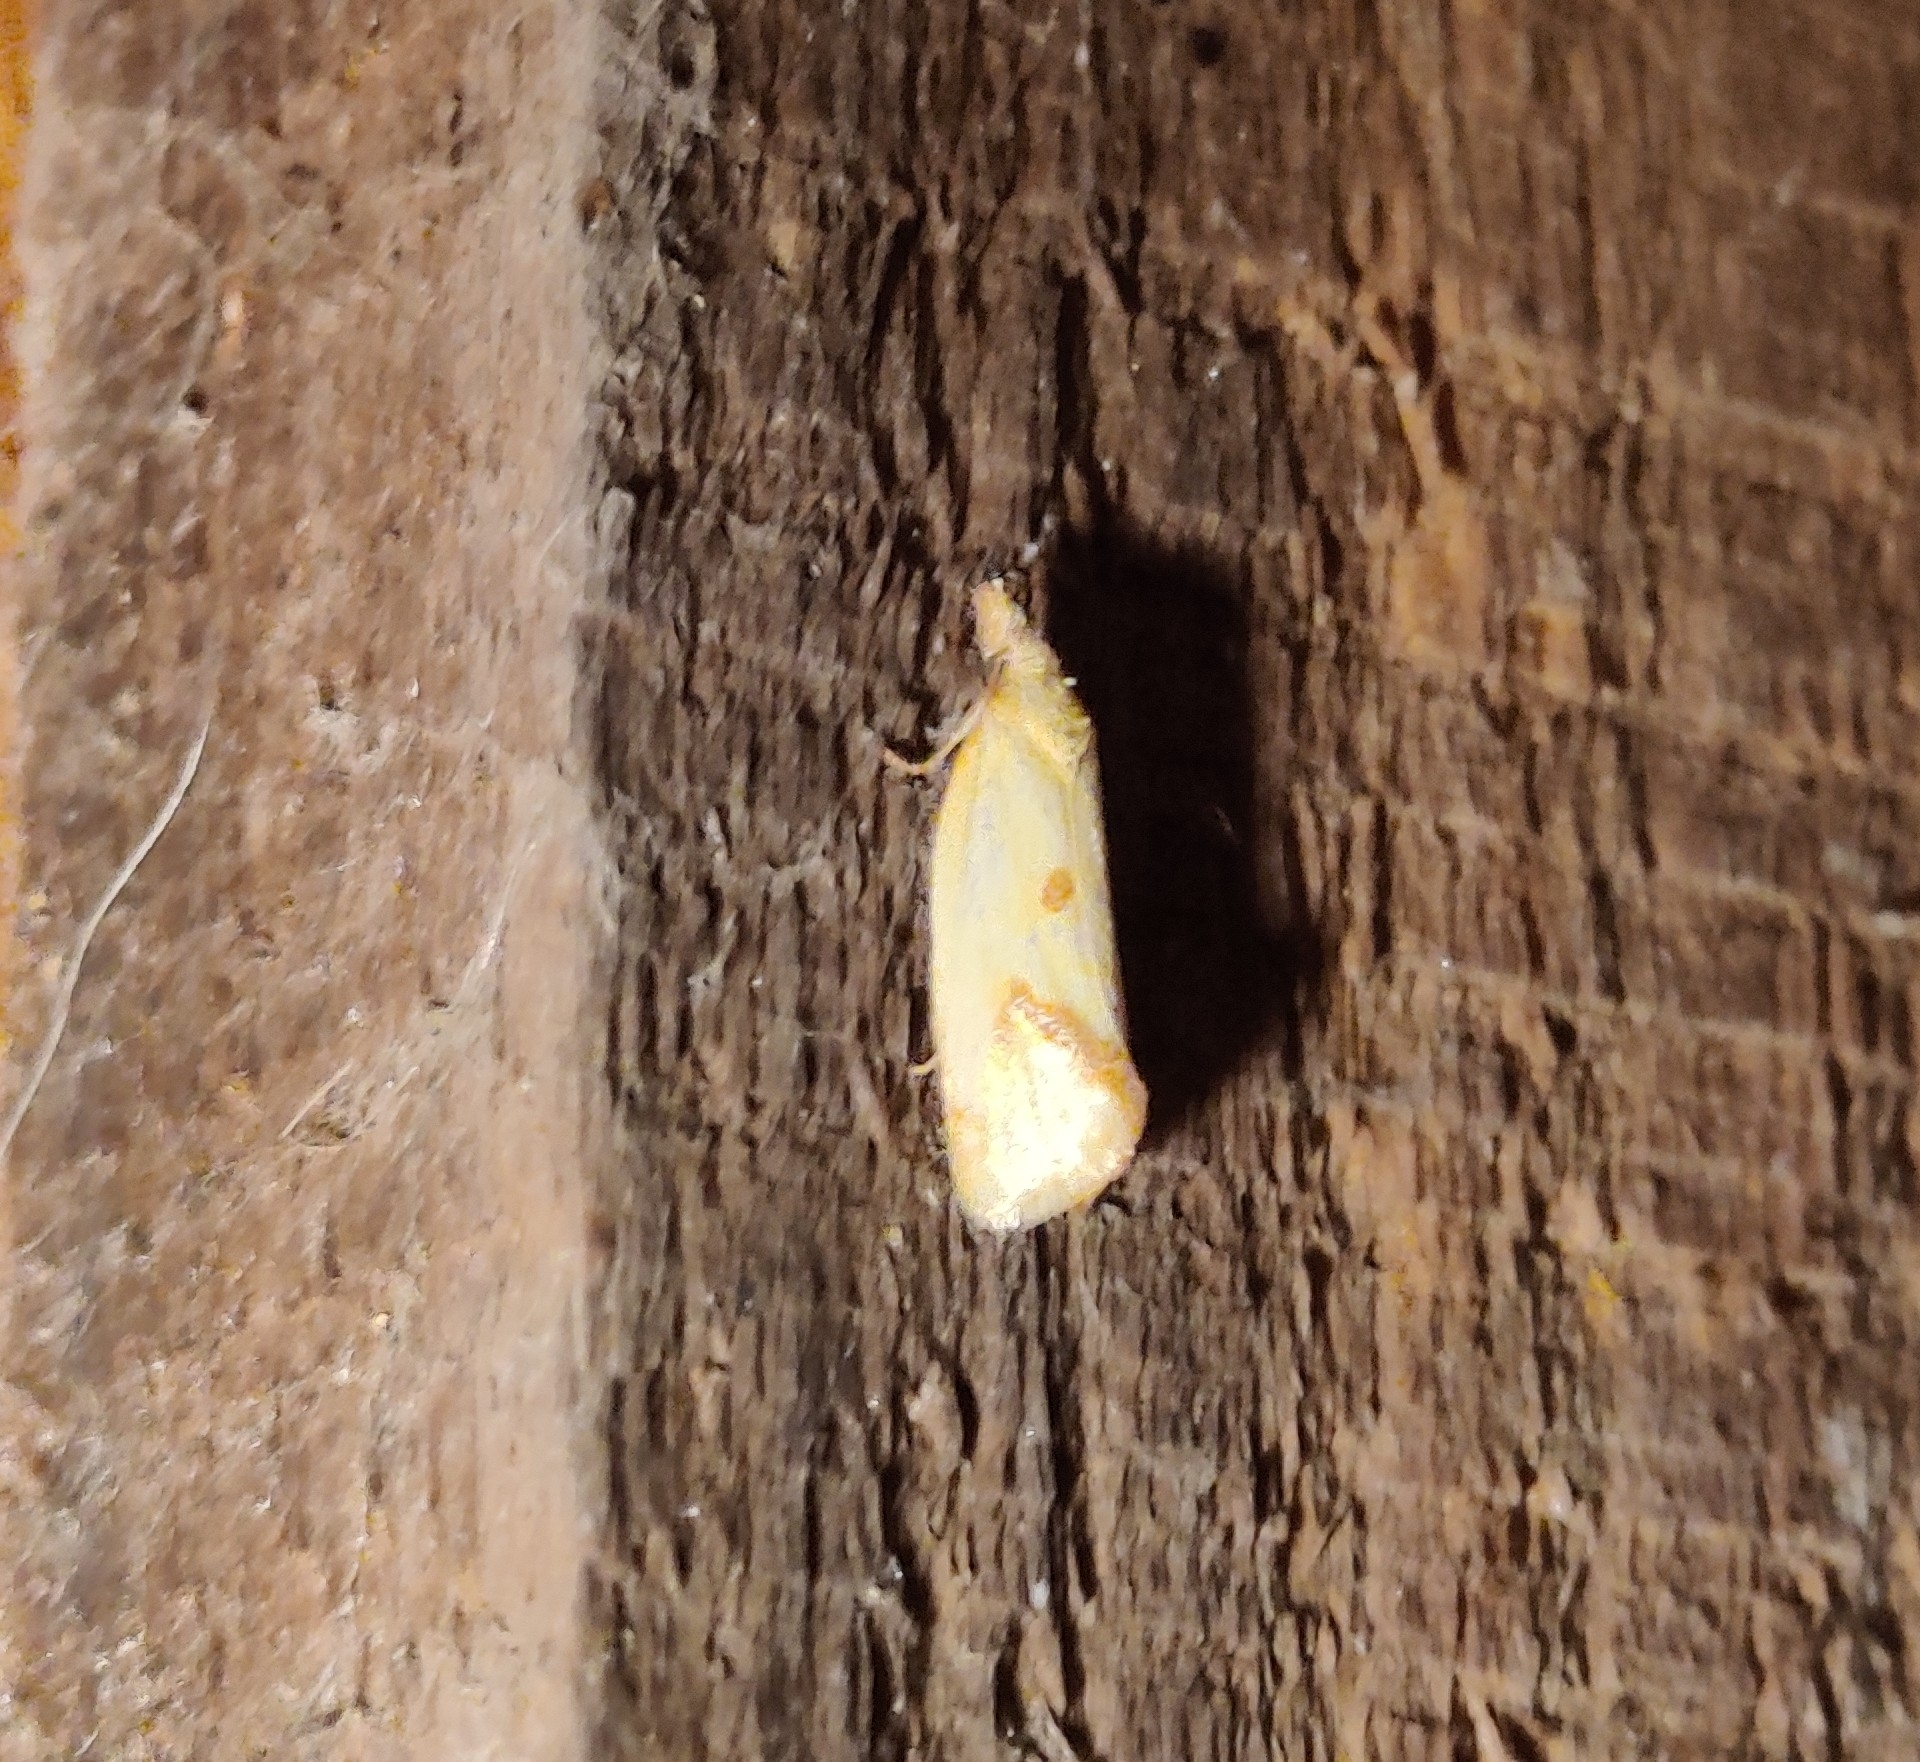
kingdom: Animalia
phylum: Arthropoda
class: Insecta
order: Lepidoptera
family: Tortricidae
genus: Agapeta
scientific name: Agapeta hamana
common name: Common yellow conch
